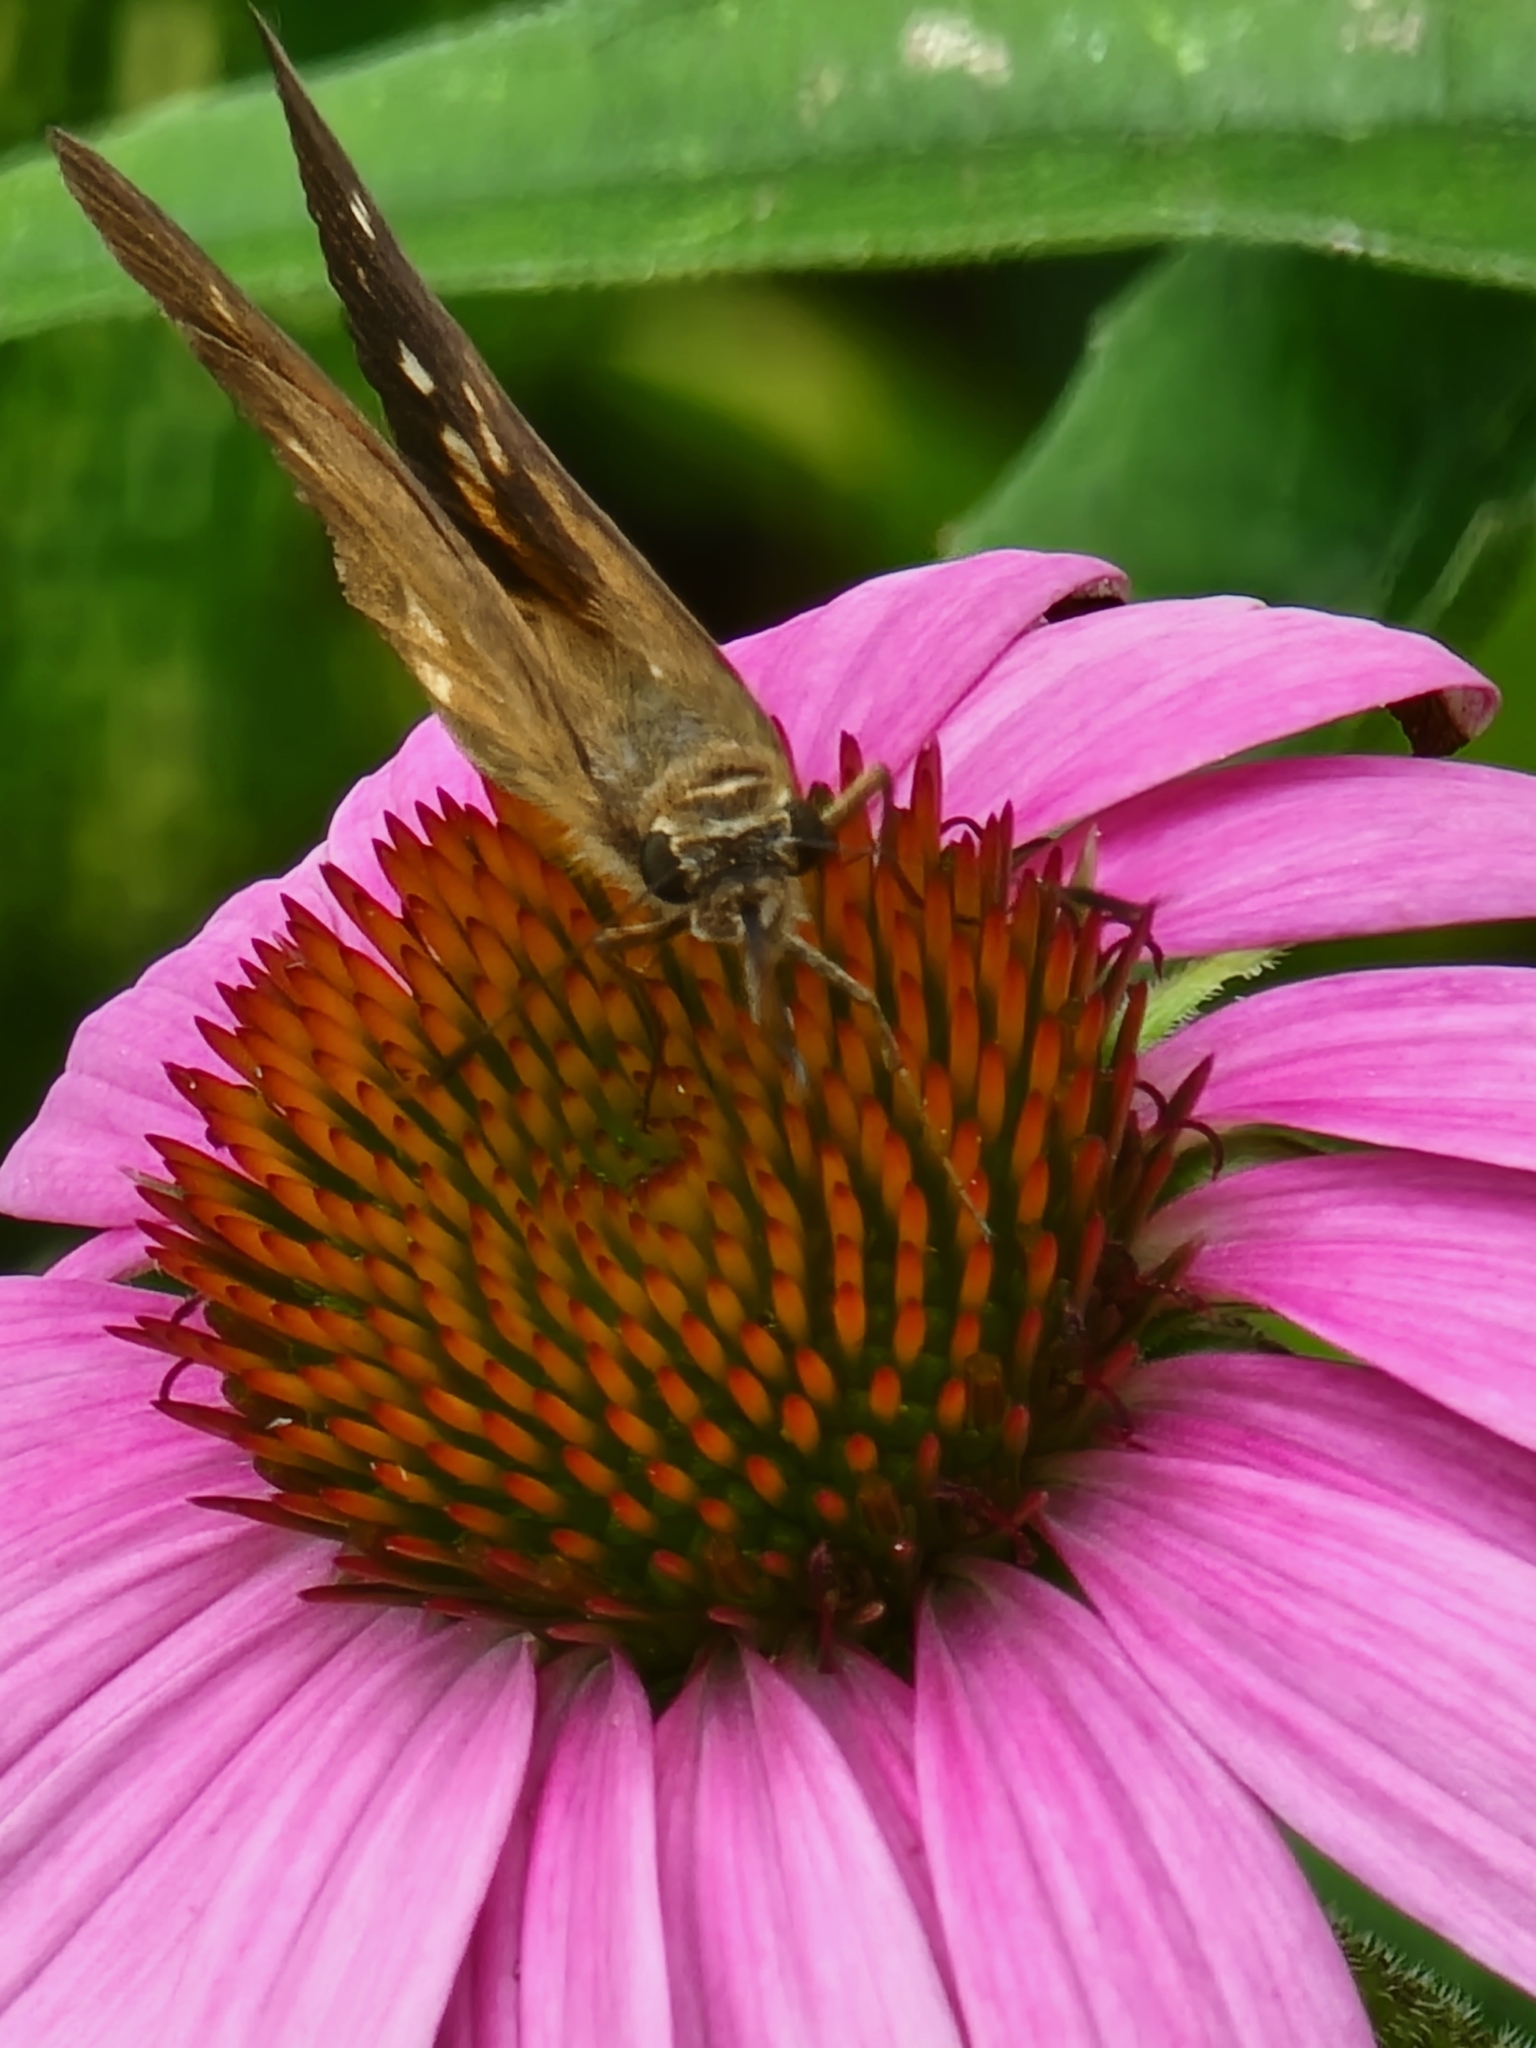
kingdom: Animalia
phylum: Arthropoda
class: Insecta
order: Lepidoptera
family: Hesperiidae
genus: Poanes
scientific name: Poanes viator
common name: Broad-winged skipper
